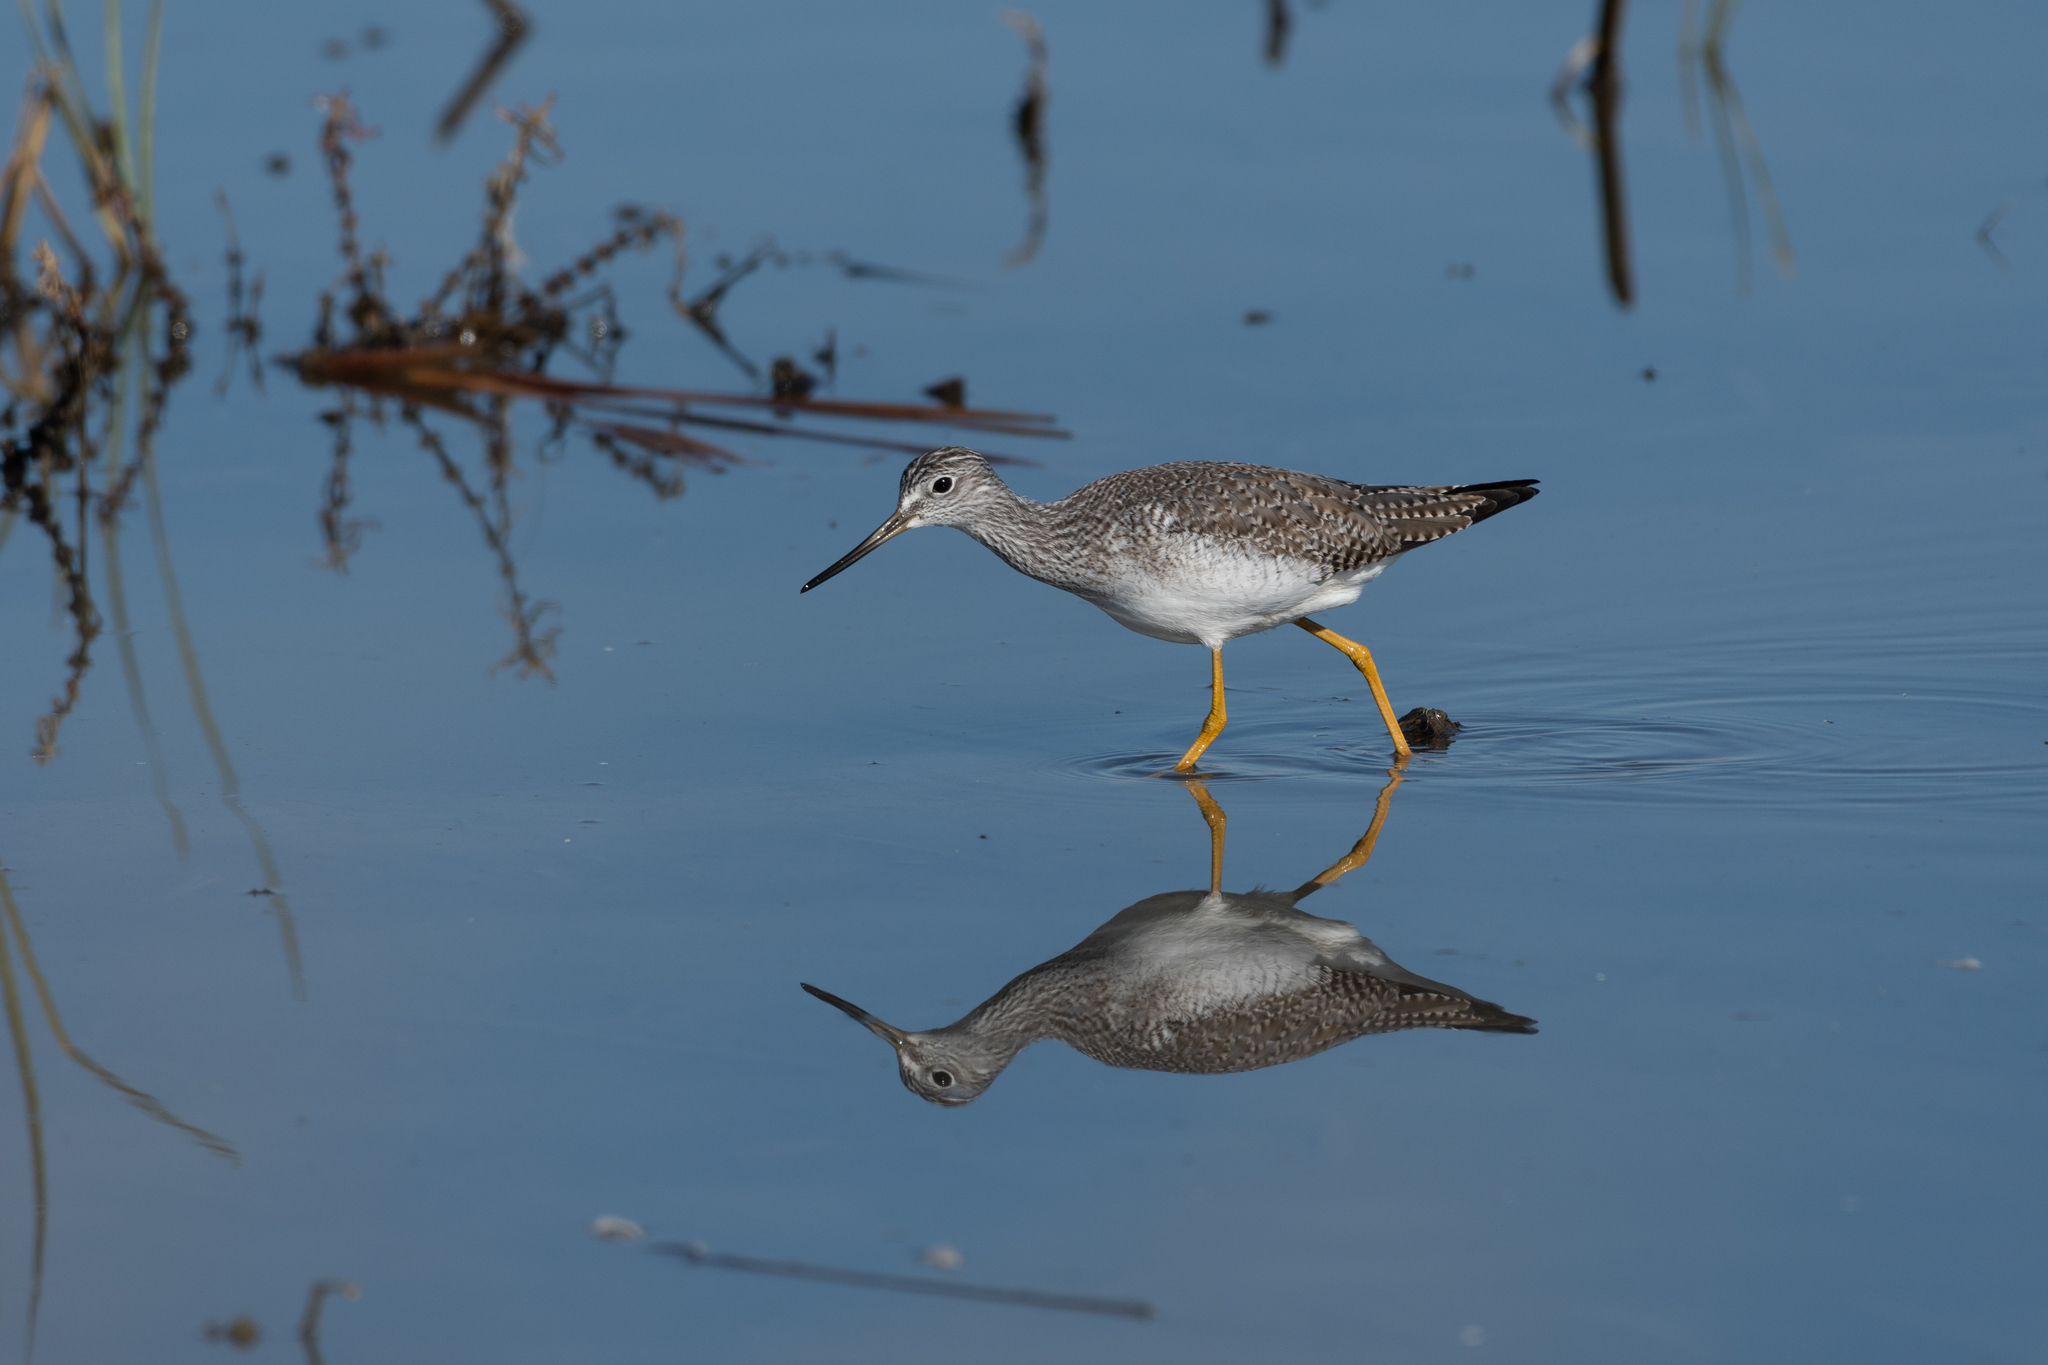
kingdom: Animalia
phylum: Chordata
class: Aves
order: Charadriiformes
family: Scolopacidae
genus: Tringa
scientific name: Tringa melanoleuca
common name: Greater yellowlegs
